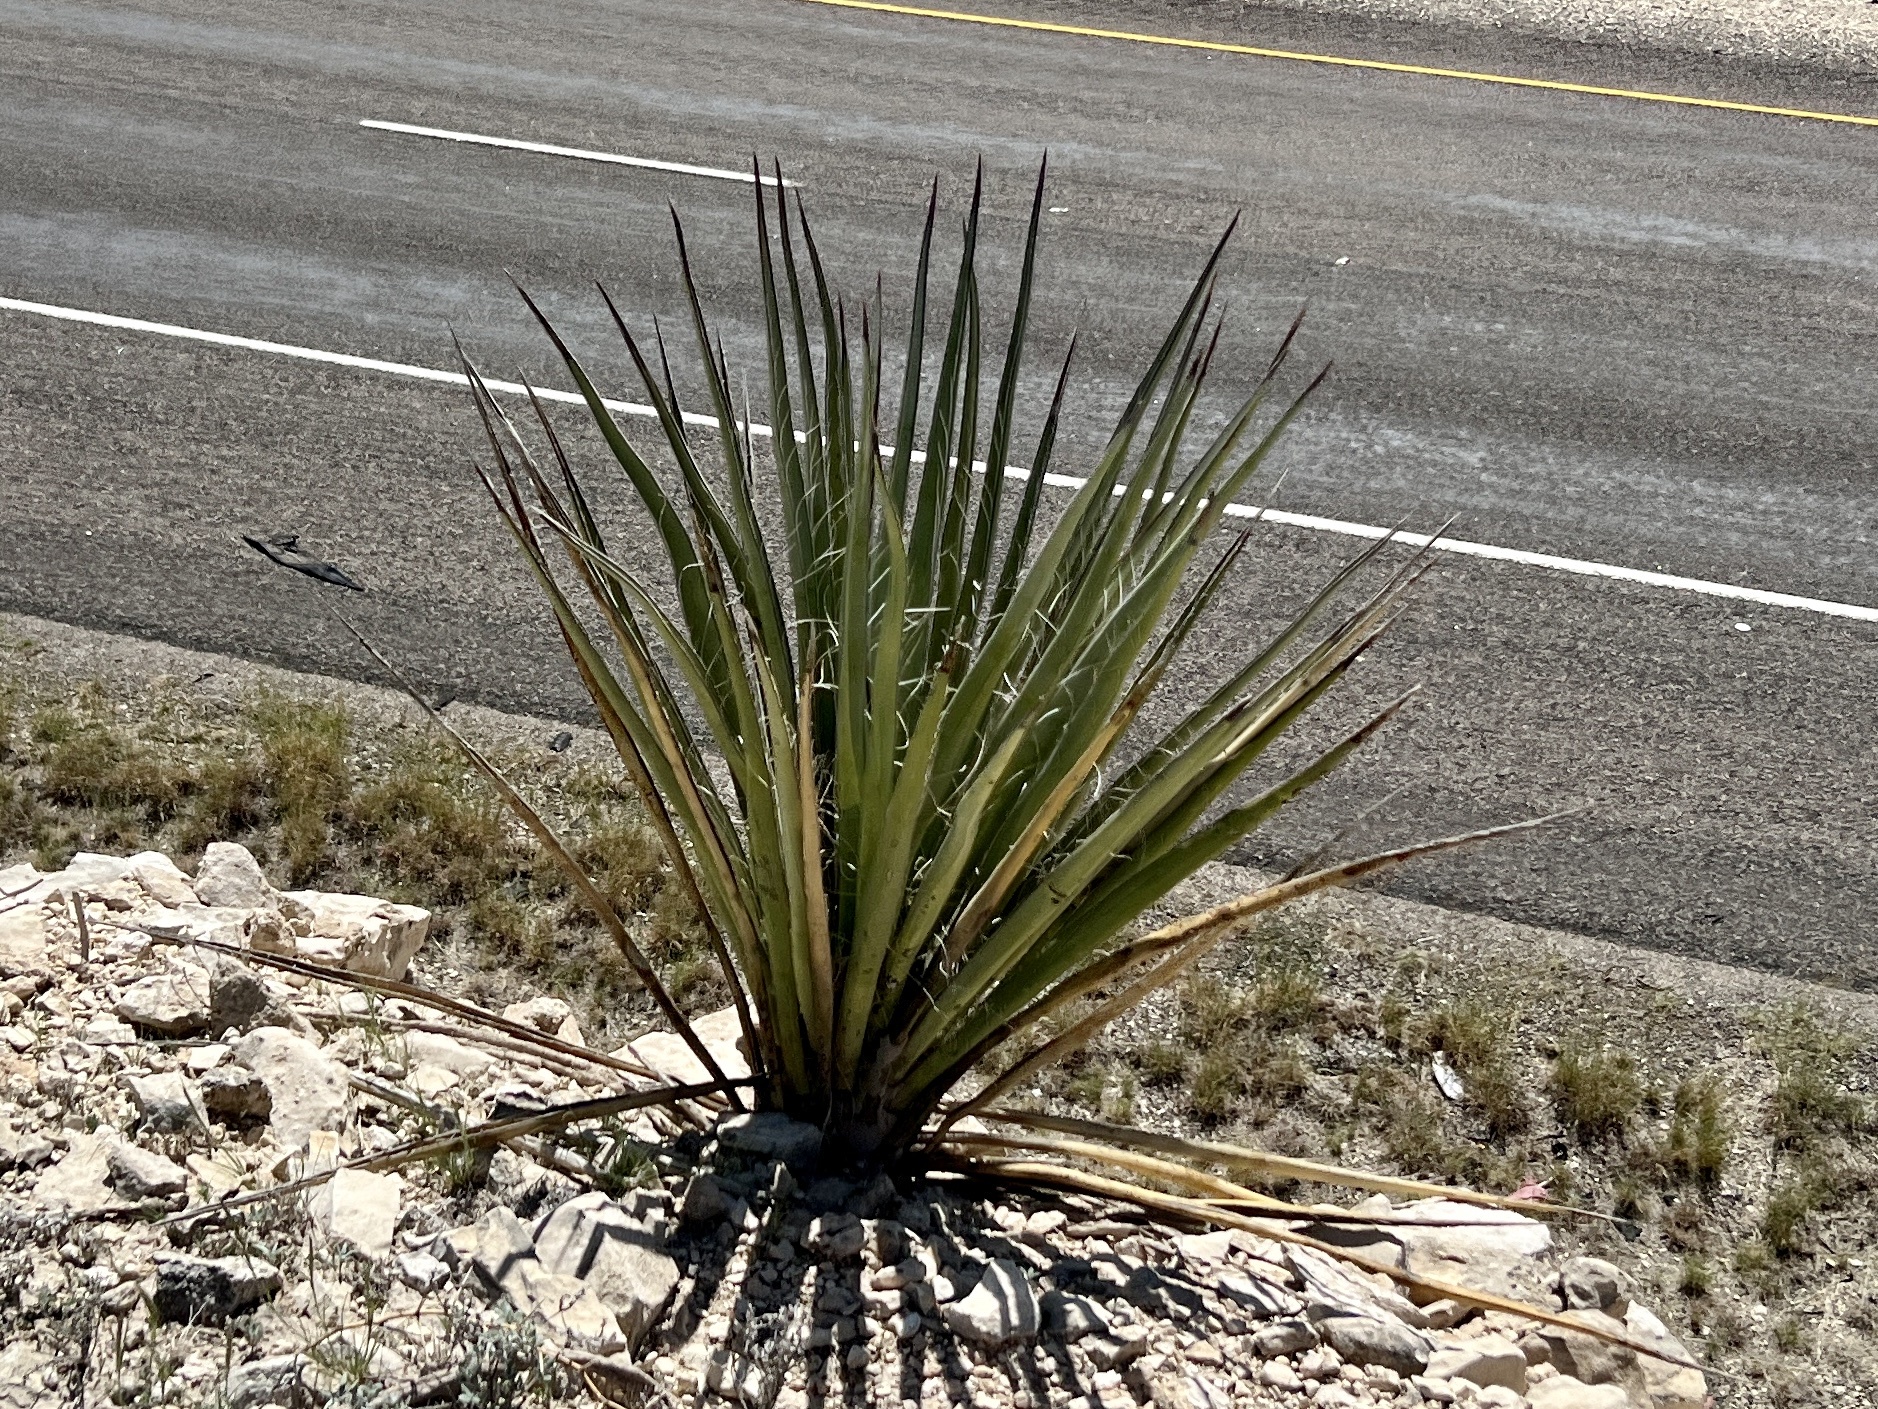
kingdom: Plantae
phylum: Tracheophyta
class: Liliopsida
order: Asparagales
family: Asparagaceae
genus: Yucca
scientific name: Yucca treculiana
